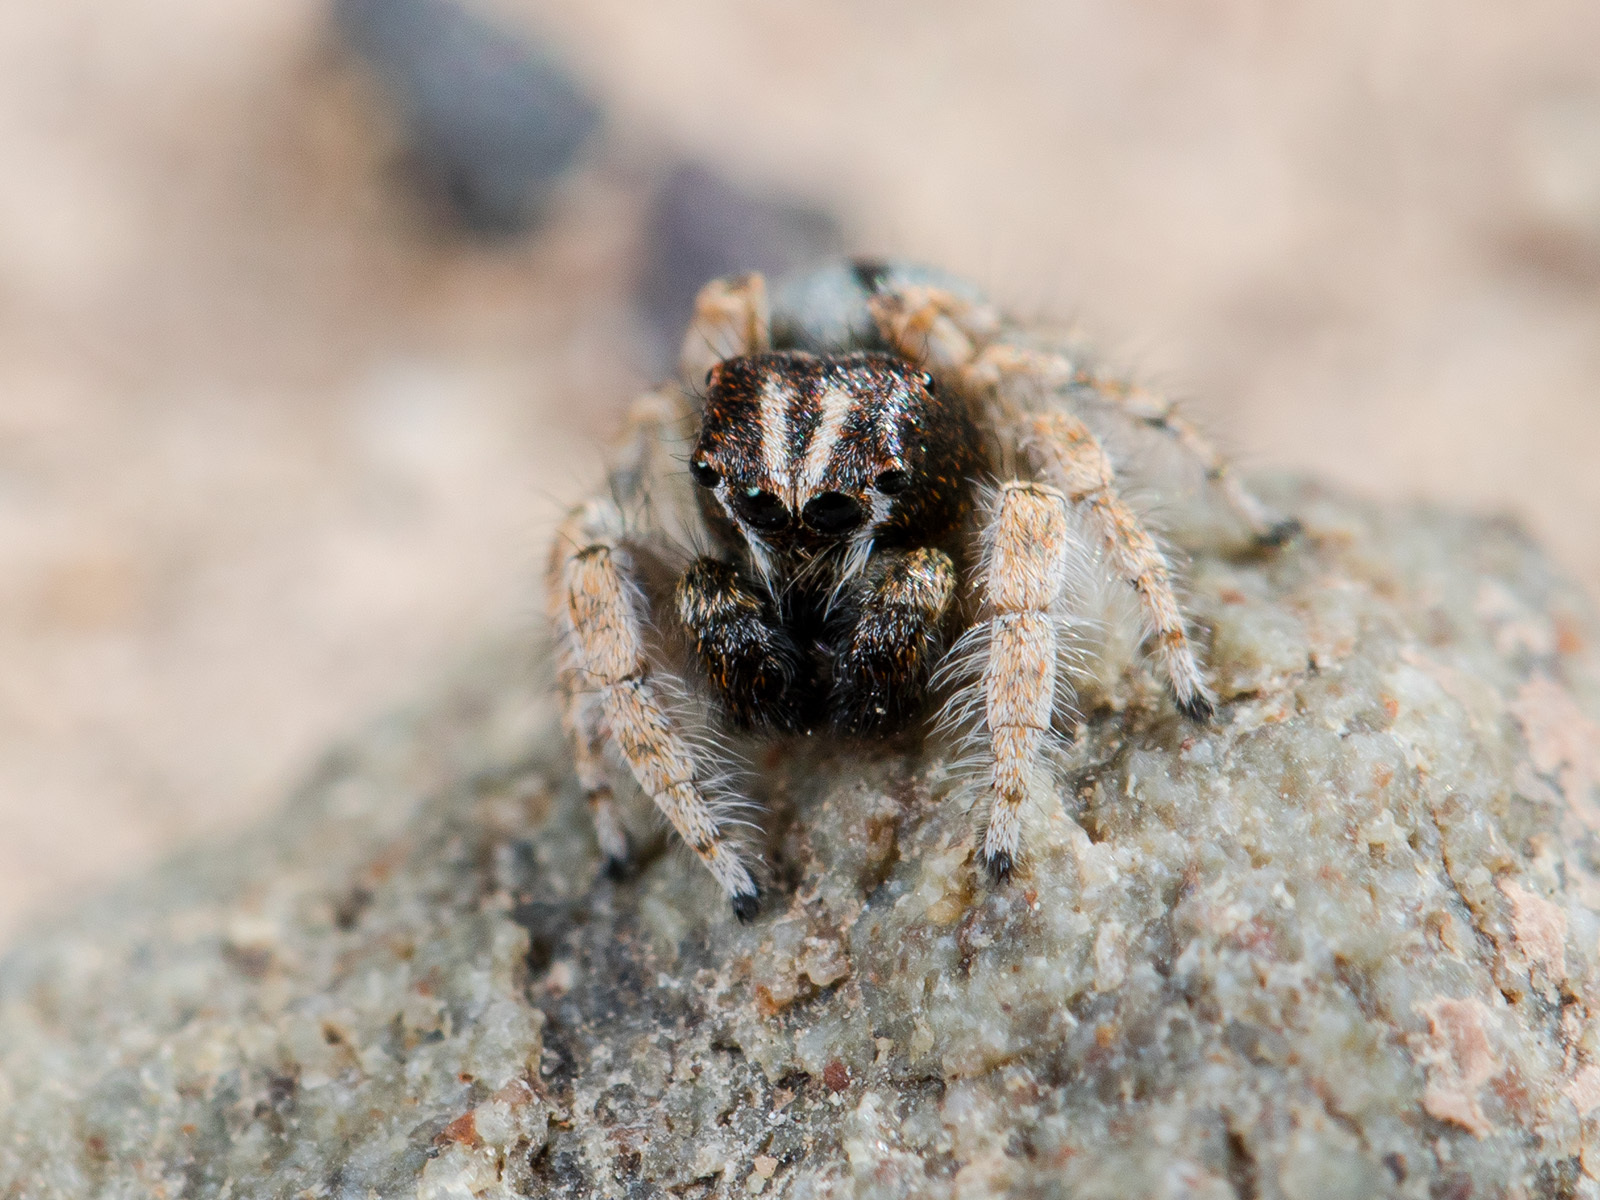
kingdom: Animalia
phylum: Arthropoda
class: Arachnida
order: Araneae
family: Salticidae
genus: Yllenus
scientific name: Yllenus zyuzini
